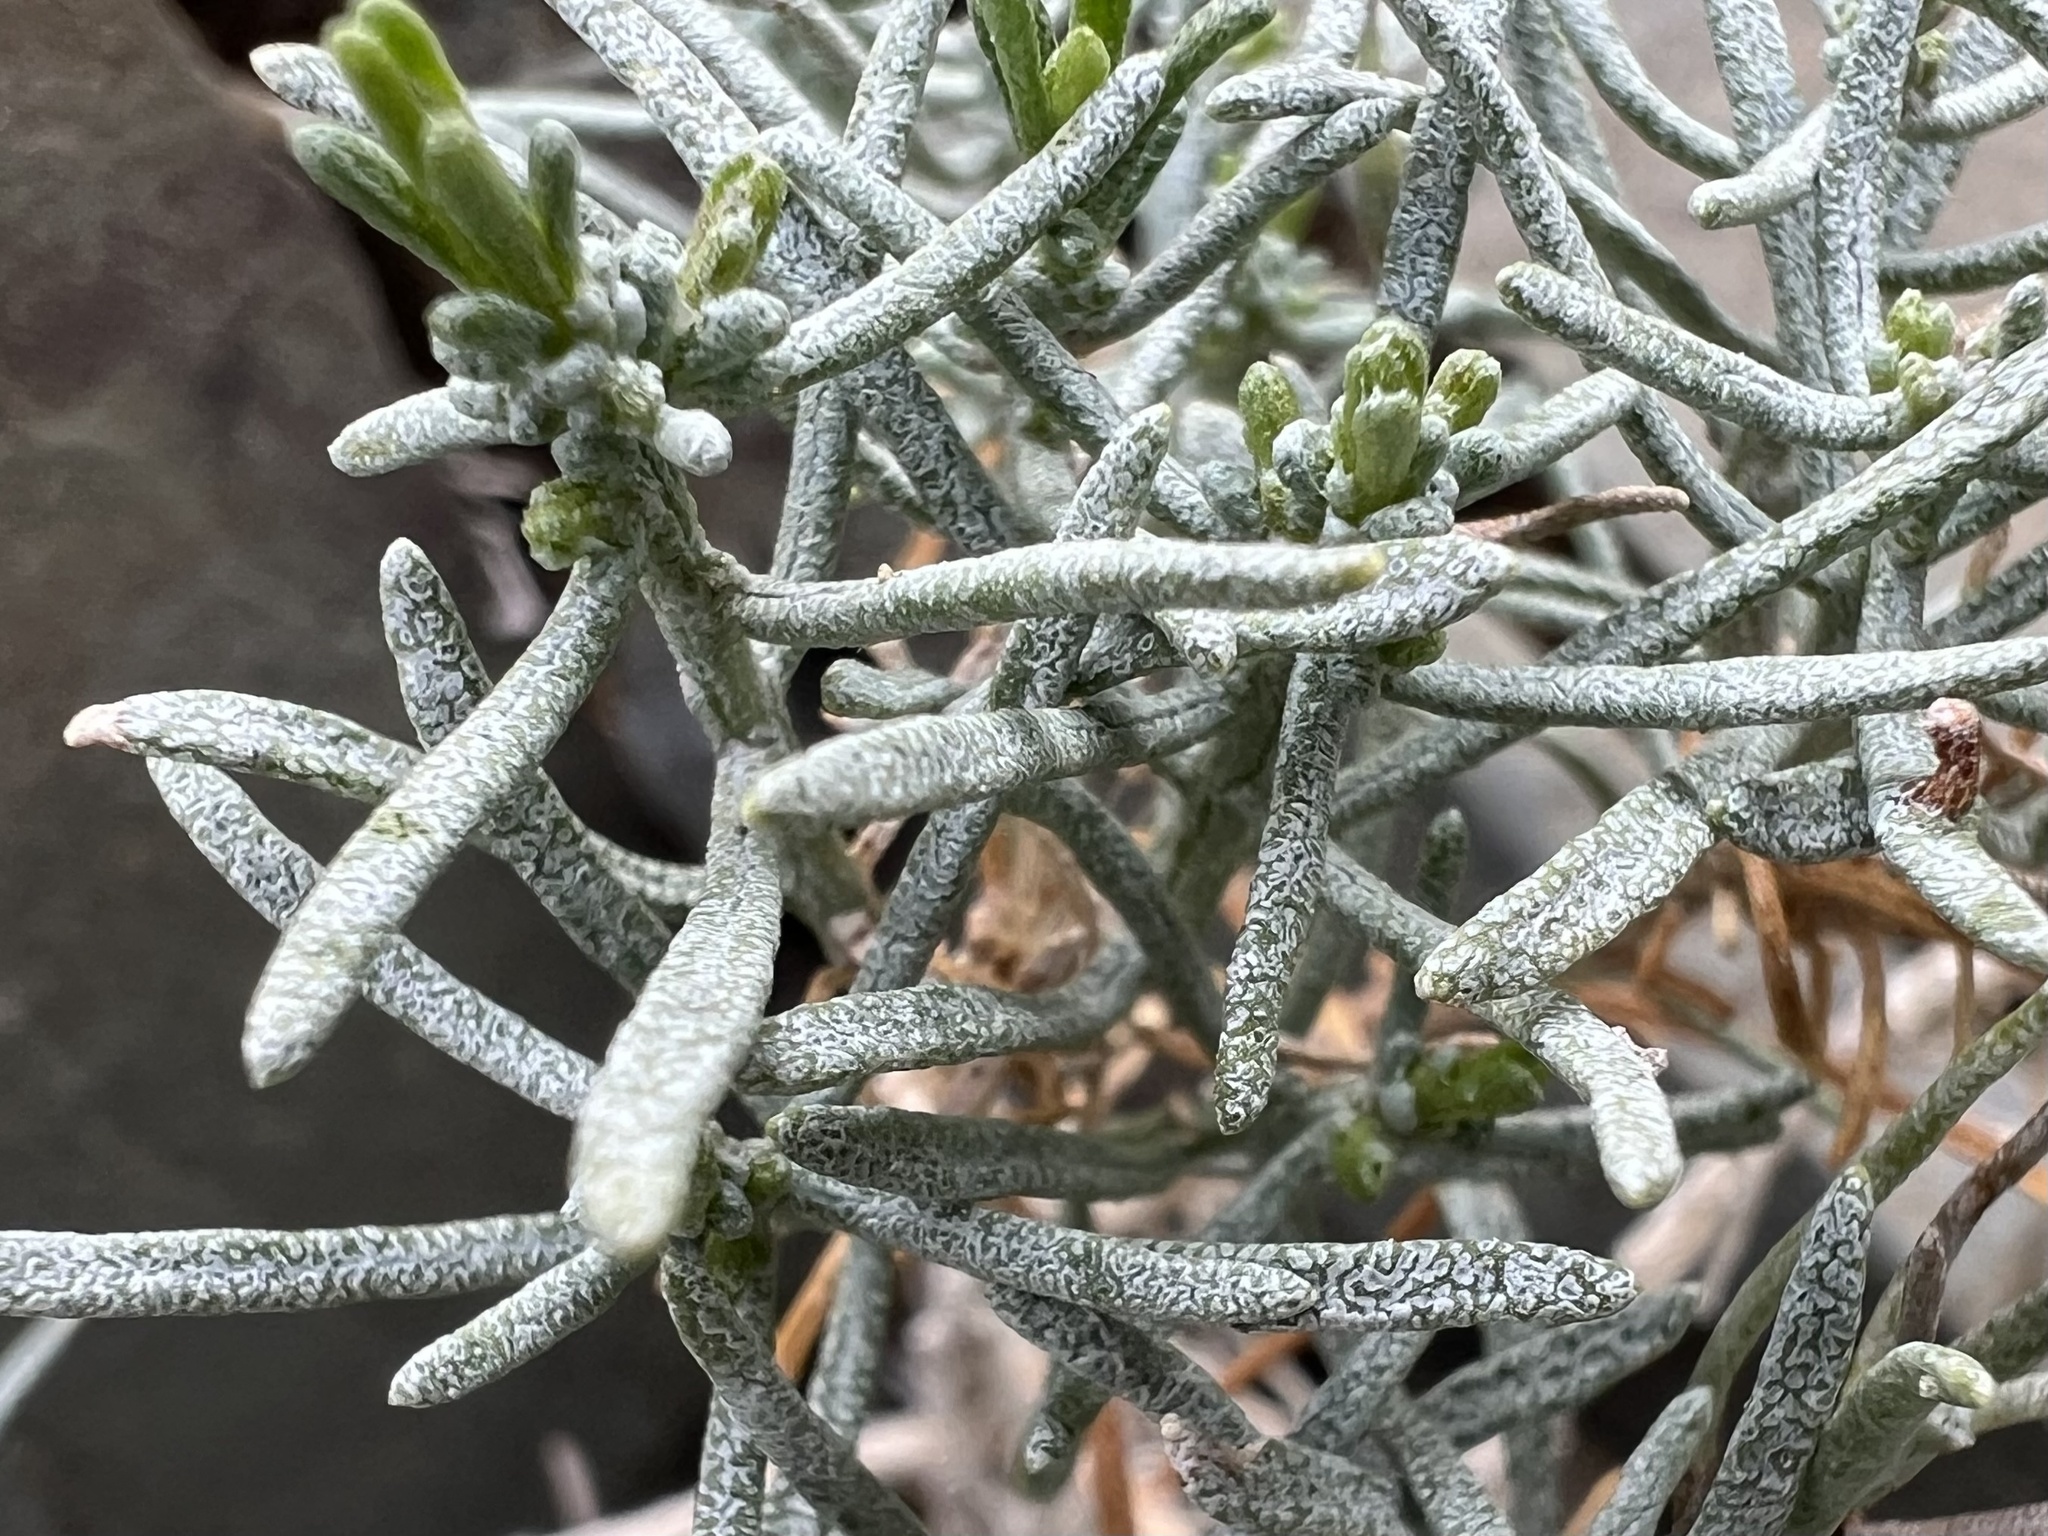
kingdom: Plantae
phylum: Tracheophyta
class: Magnoliopsida
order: Asterales
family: Asteraceae
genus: Ericameria
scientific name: Ericameria teretifolia
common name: Round-leaf rabbitbrush
